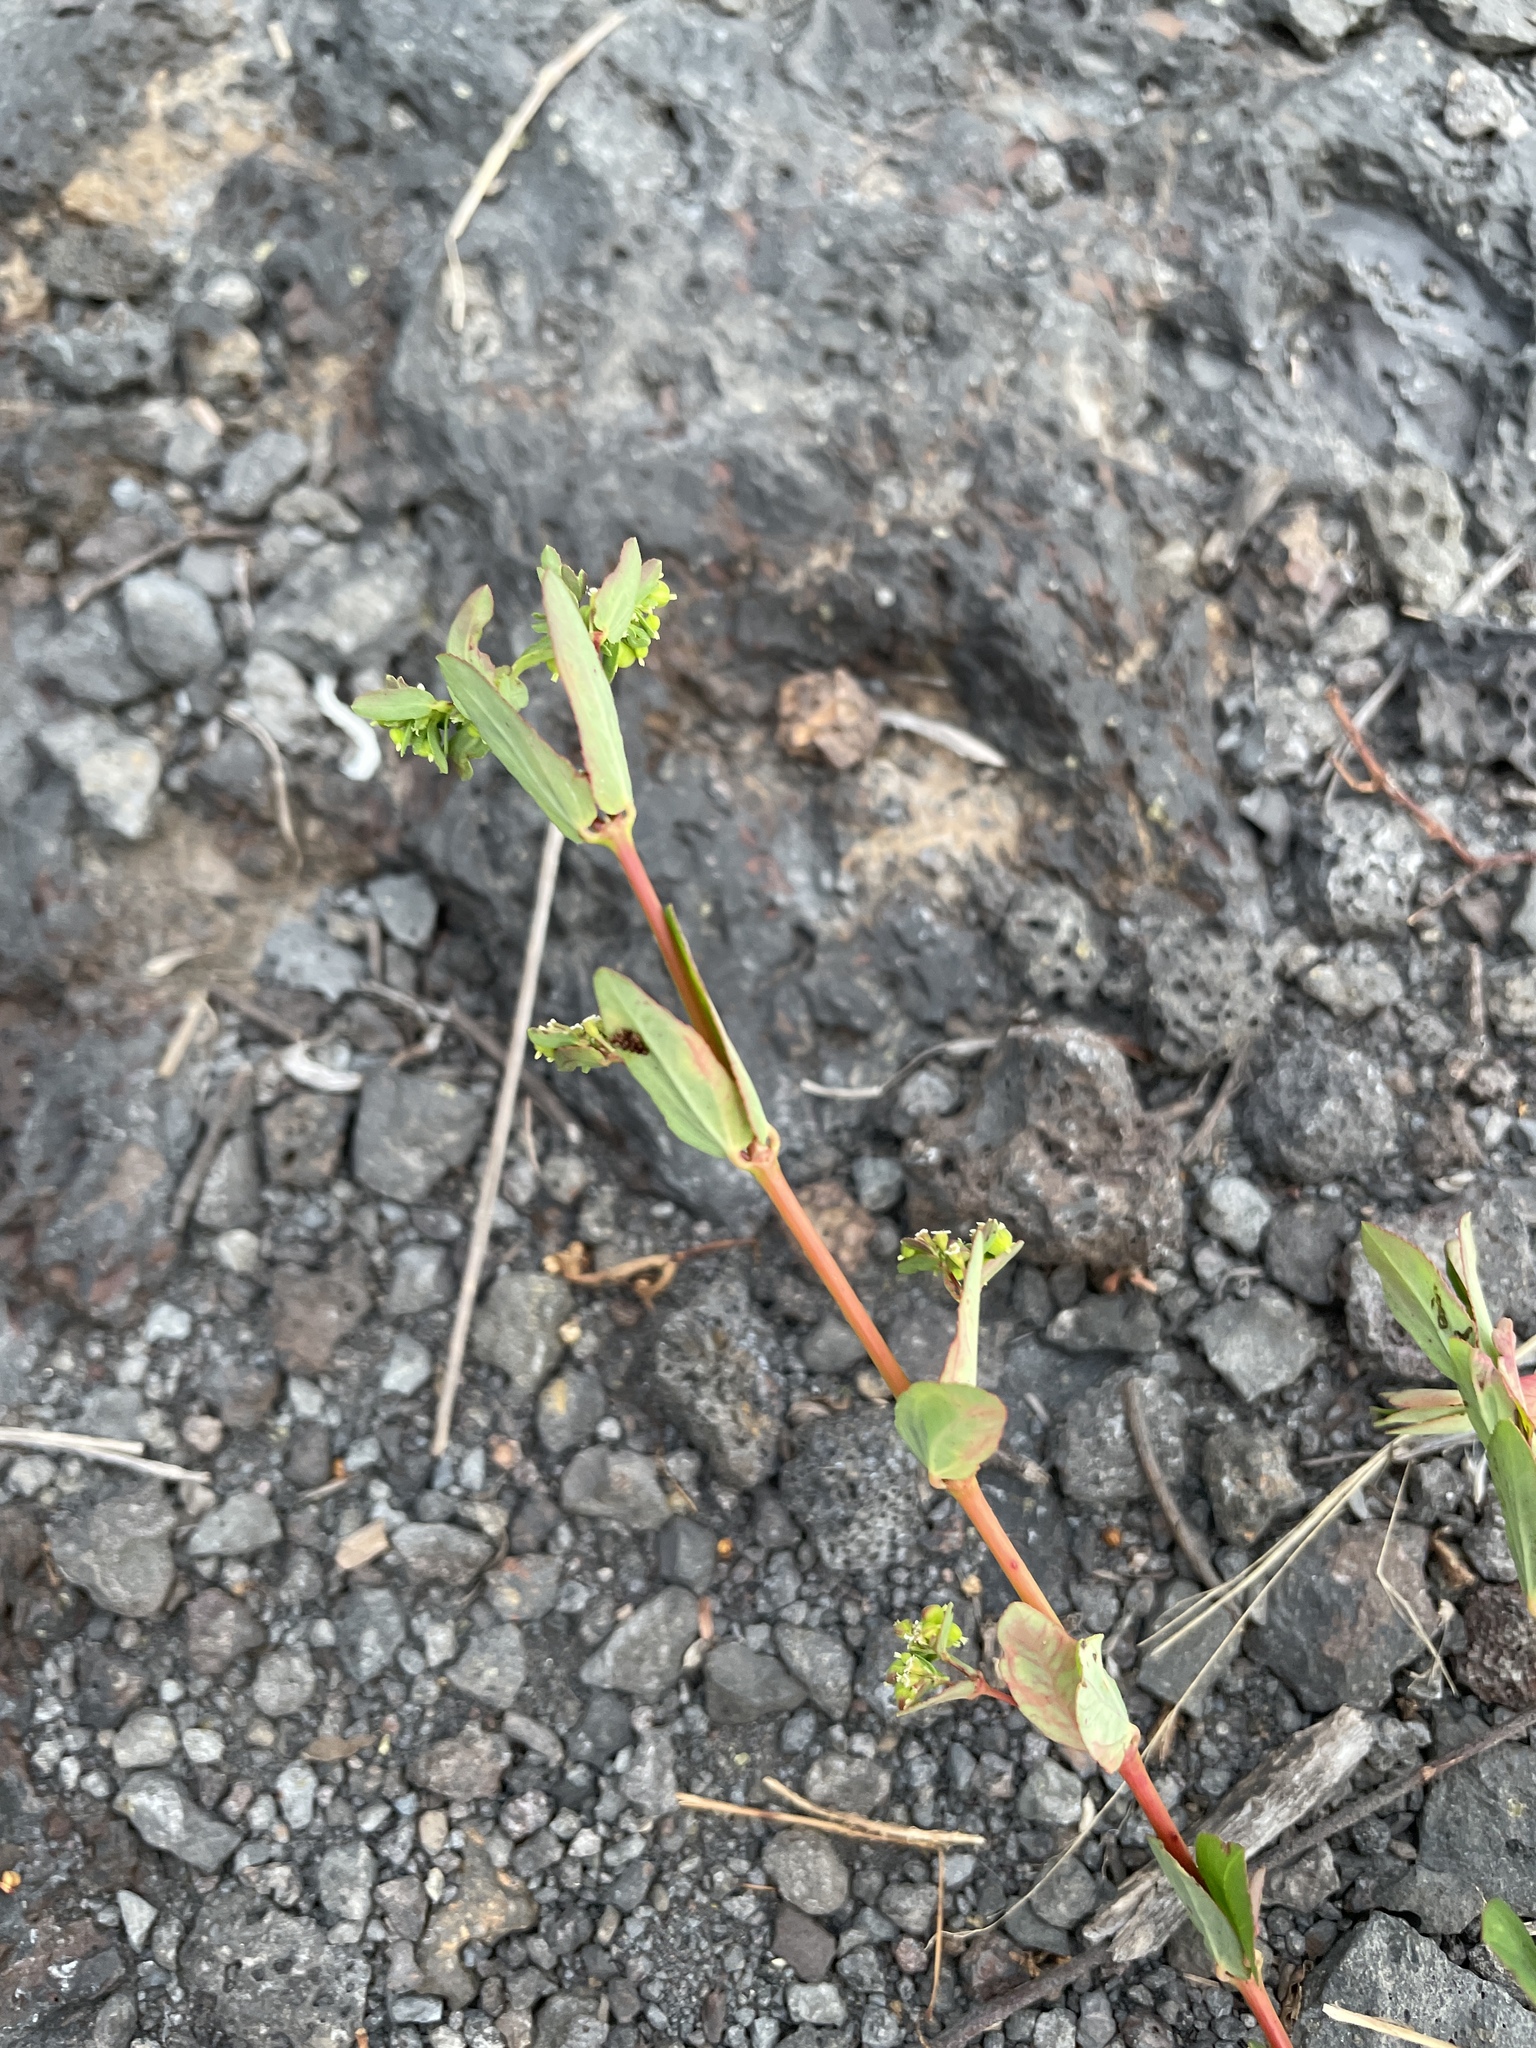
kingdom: Plantae
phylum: Tracheophyta
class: Magnoliopsida
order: Malpighiales
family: Euphorbiaceae
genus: Euphorbia
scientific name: Euphorbia hyssopifolia
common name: Hyssopleaf sandmat
